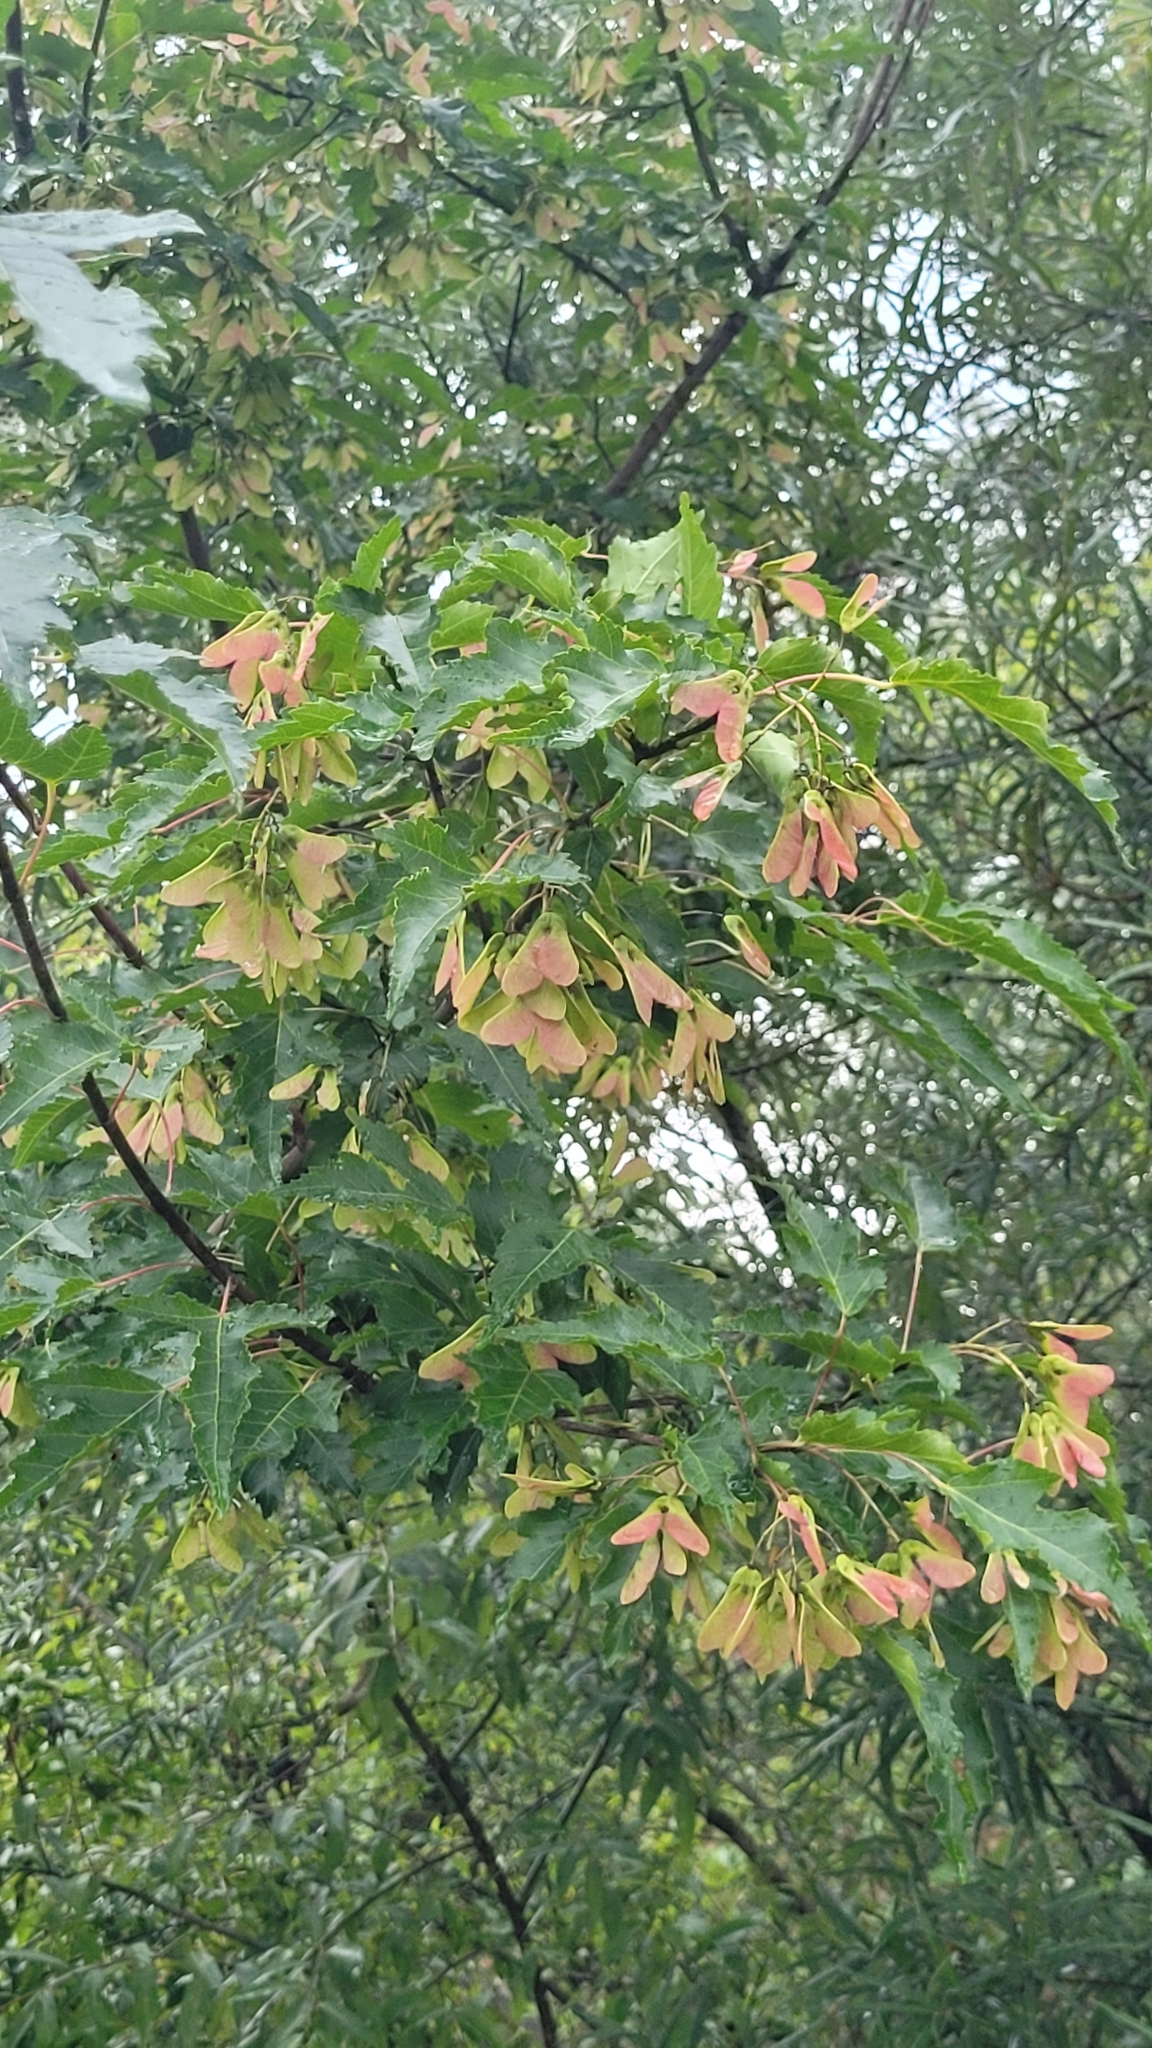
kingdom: Plantae
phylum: Tracheophyta
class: Magnoliopsida
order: Sapindales
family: Sapindaceae
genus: Acer
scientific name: Acer tataricum
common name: Tartar maple
